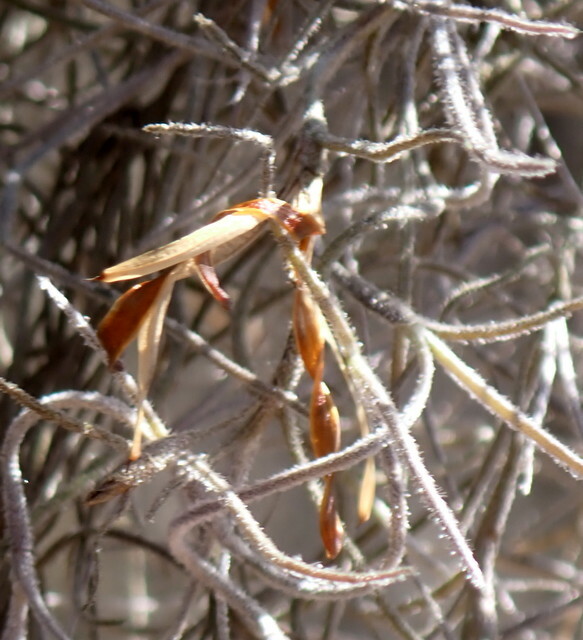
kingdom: Plantae
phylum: Tracheophyta
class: Liliopsida
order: Poales
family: Bromeliaceae
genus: Tillandsia
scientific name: Tillandsia usneoides
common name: Spanish moss
